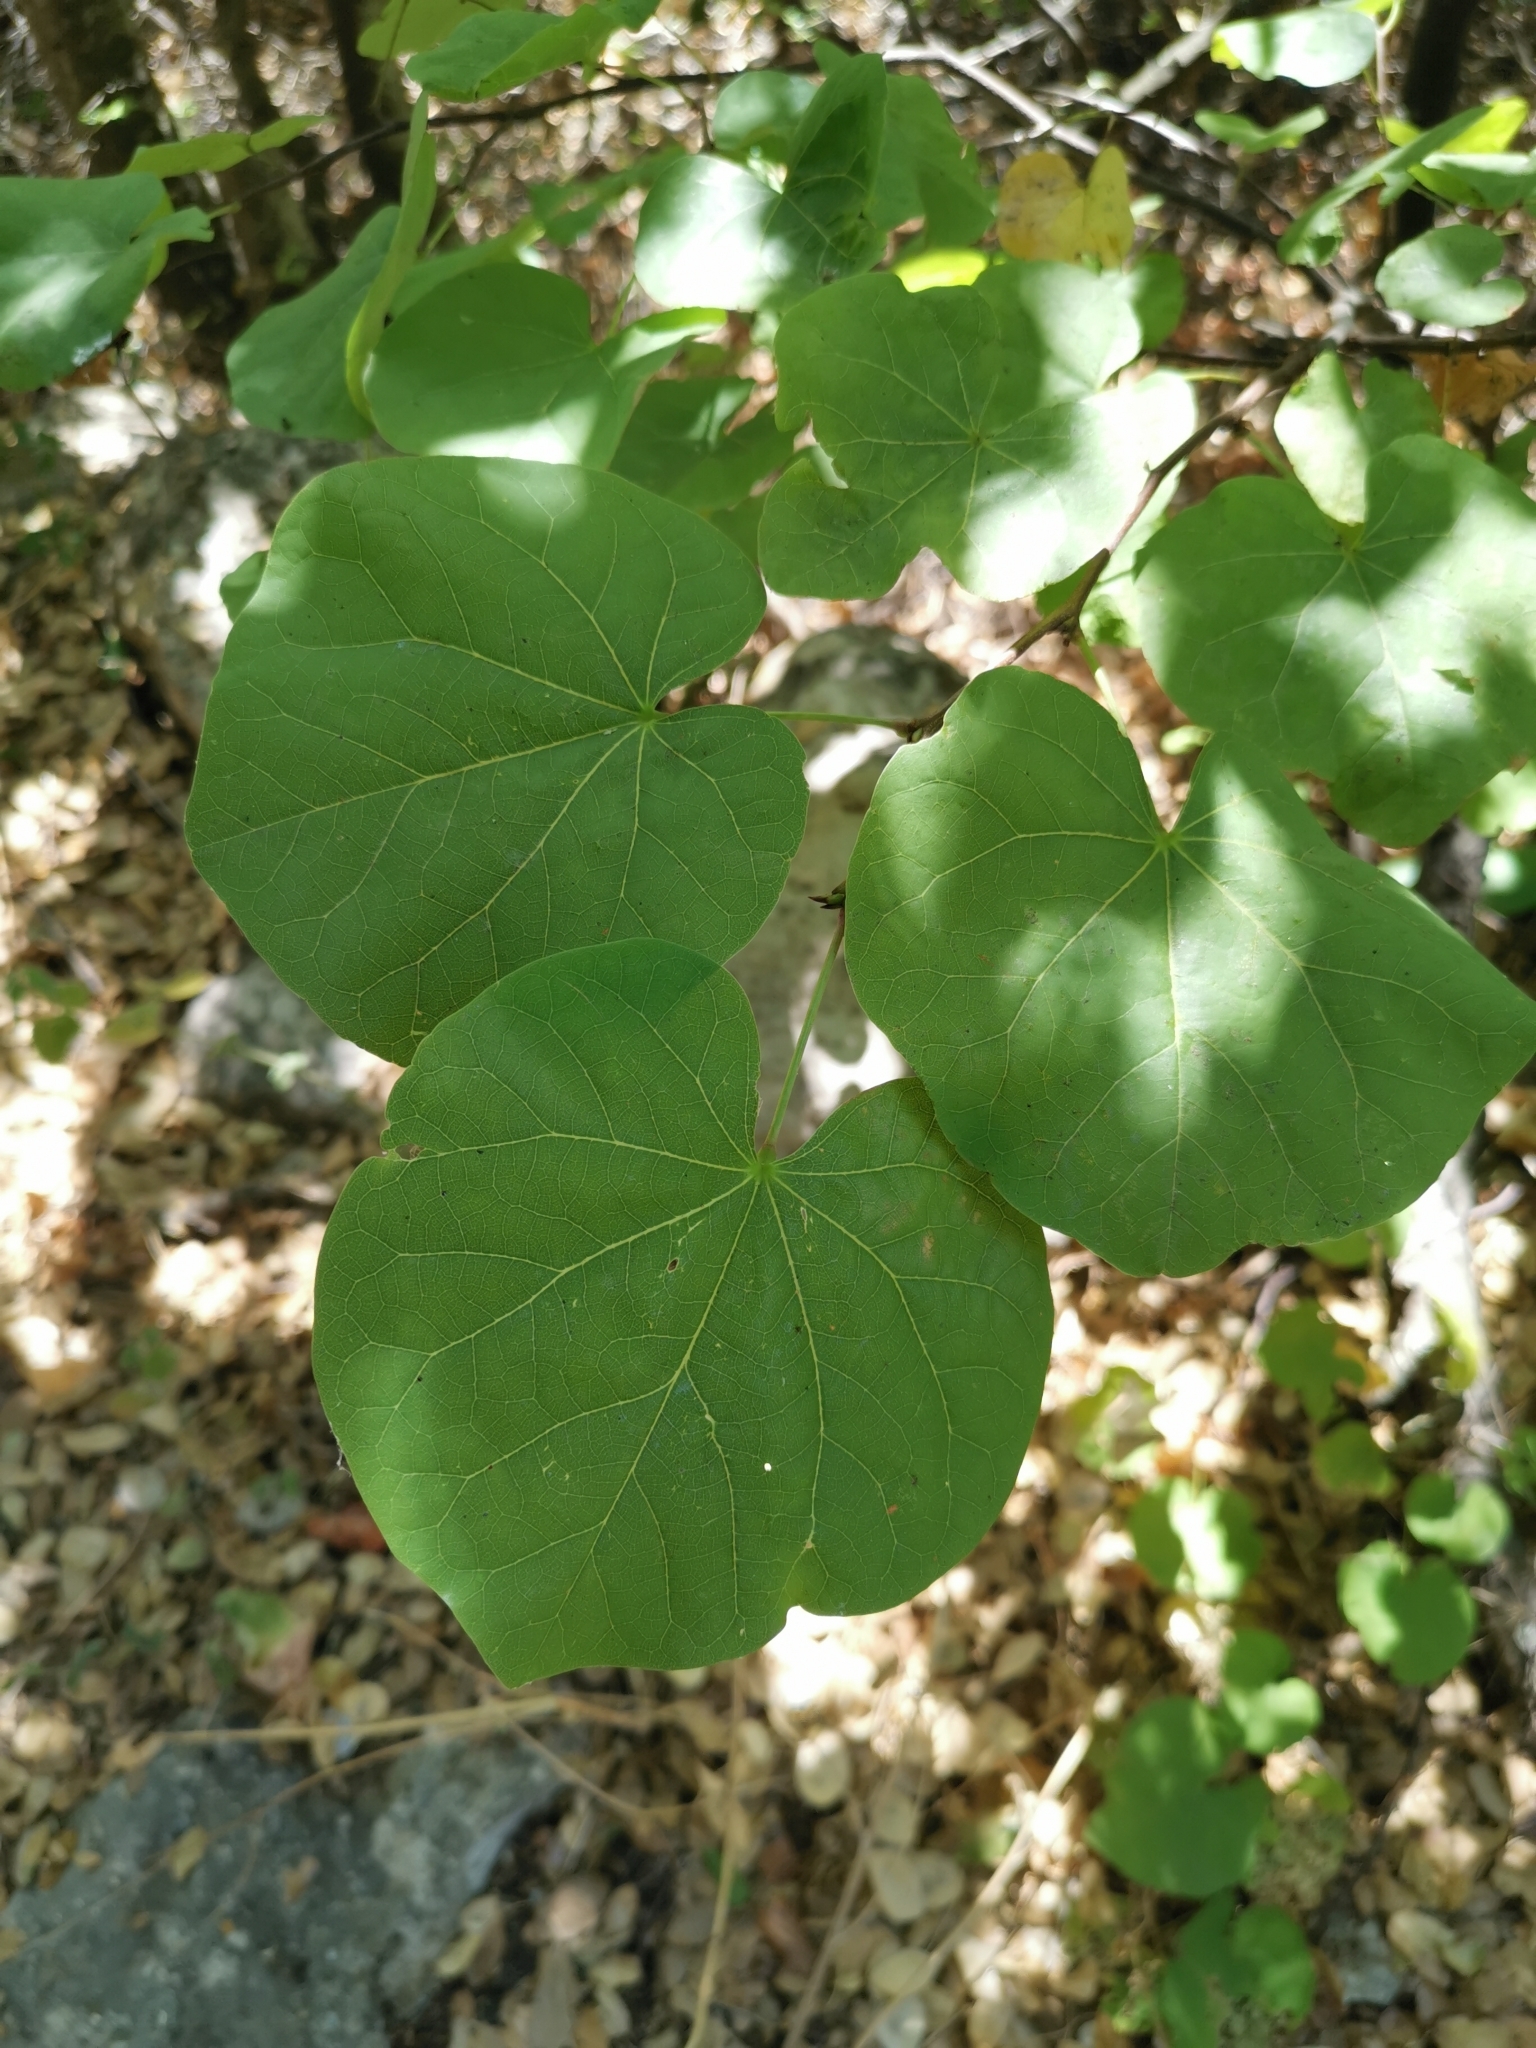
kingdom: Plantae
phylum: Tracheophyta
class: Magnoliopsida
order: Fabales
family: Fabaceae
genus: Cercis
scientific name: Cercis siliquastrum
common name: Judas tree
